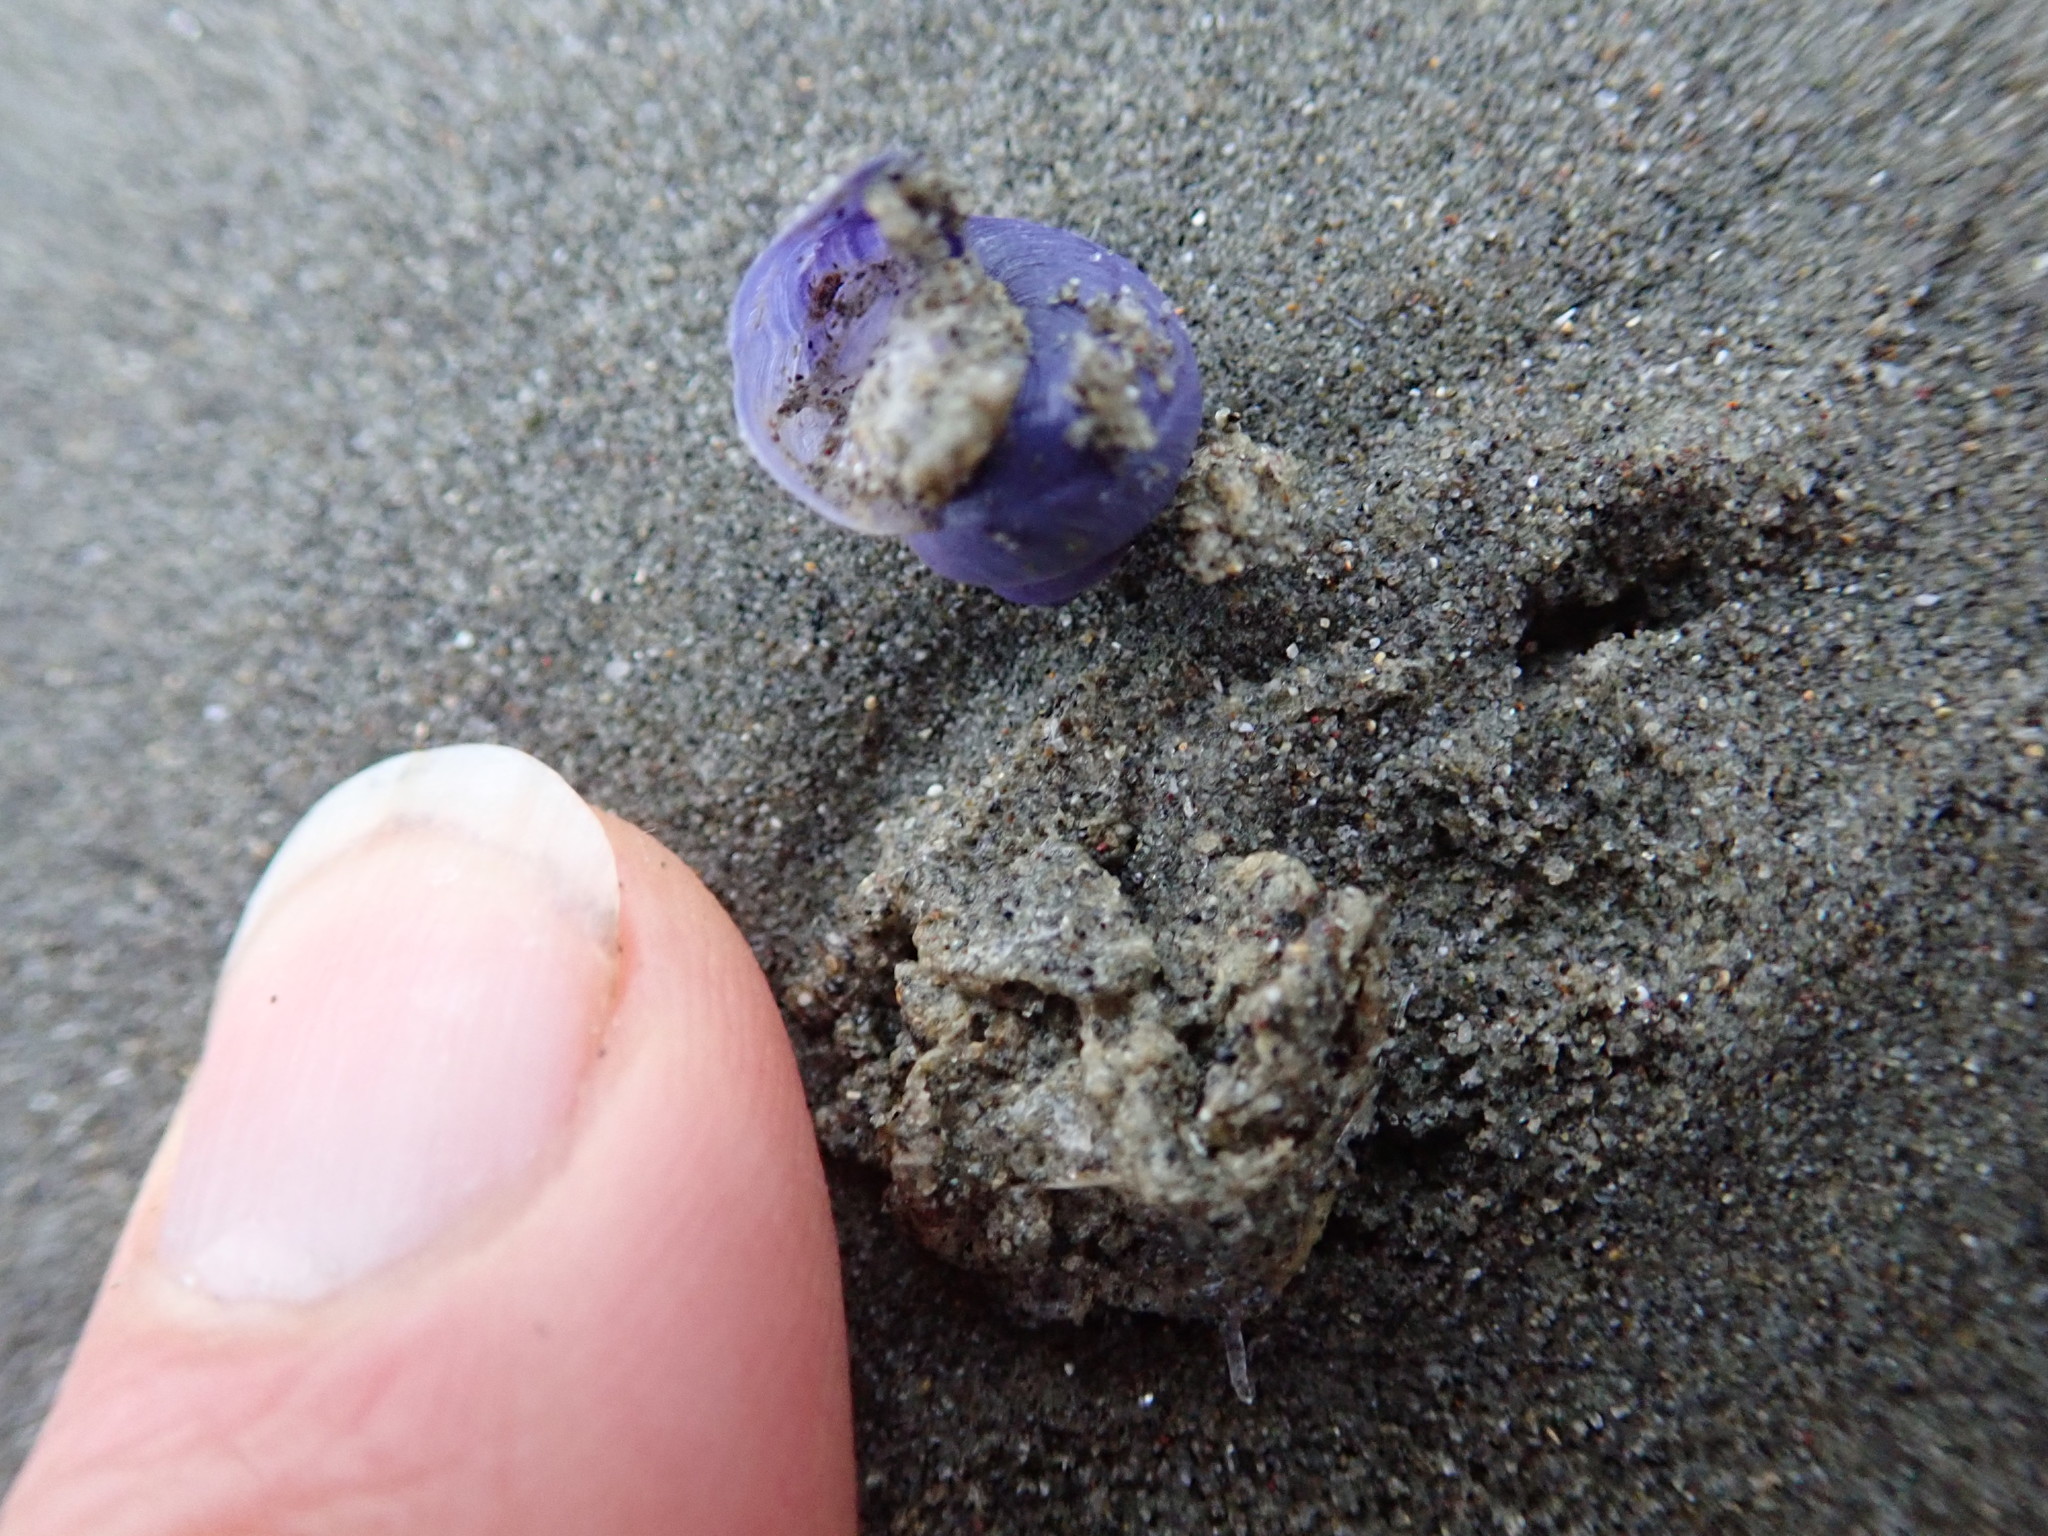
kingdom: Animalia
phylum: Mollusca
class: Gastropoda
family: Epitoniidae
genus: Janthina
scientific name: Janthina exigua
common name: Dwarf janthina
